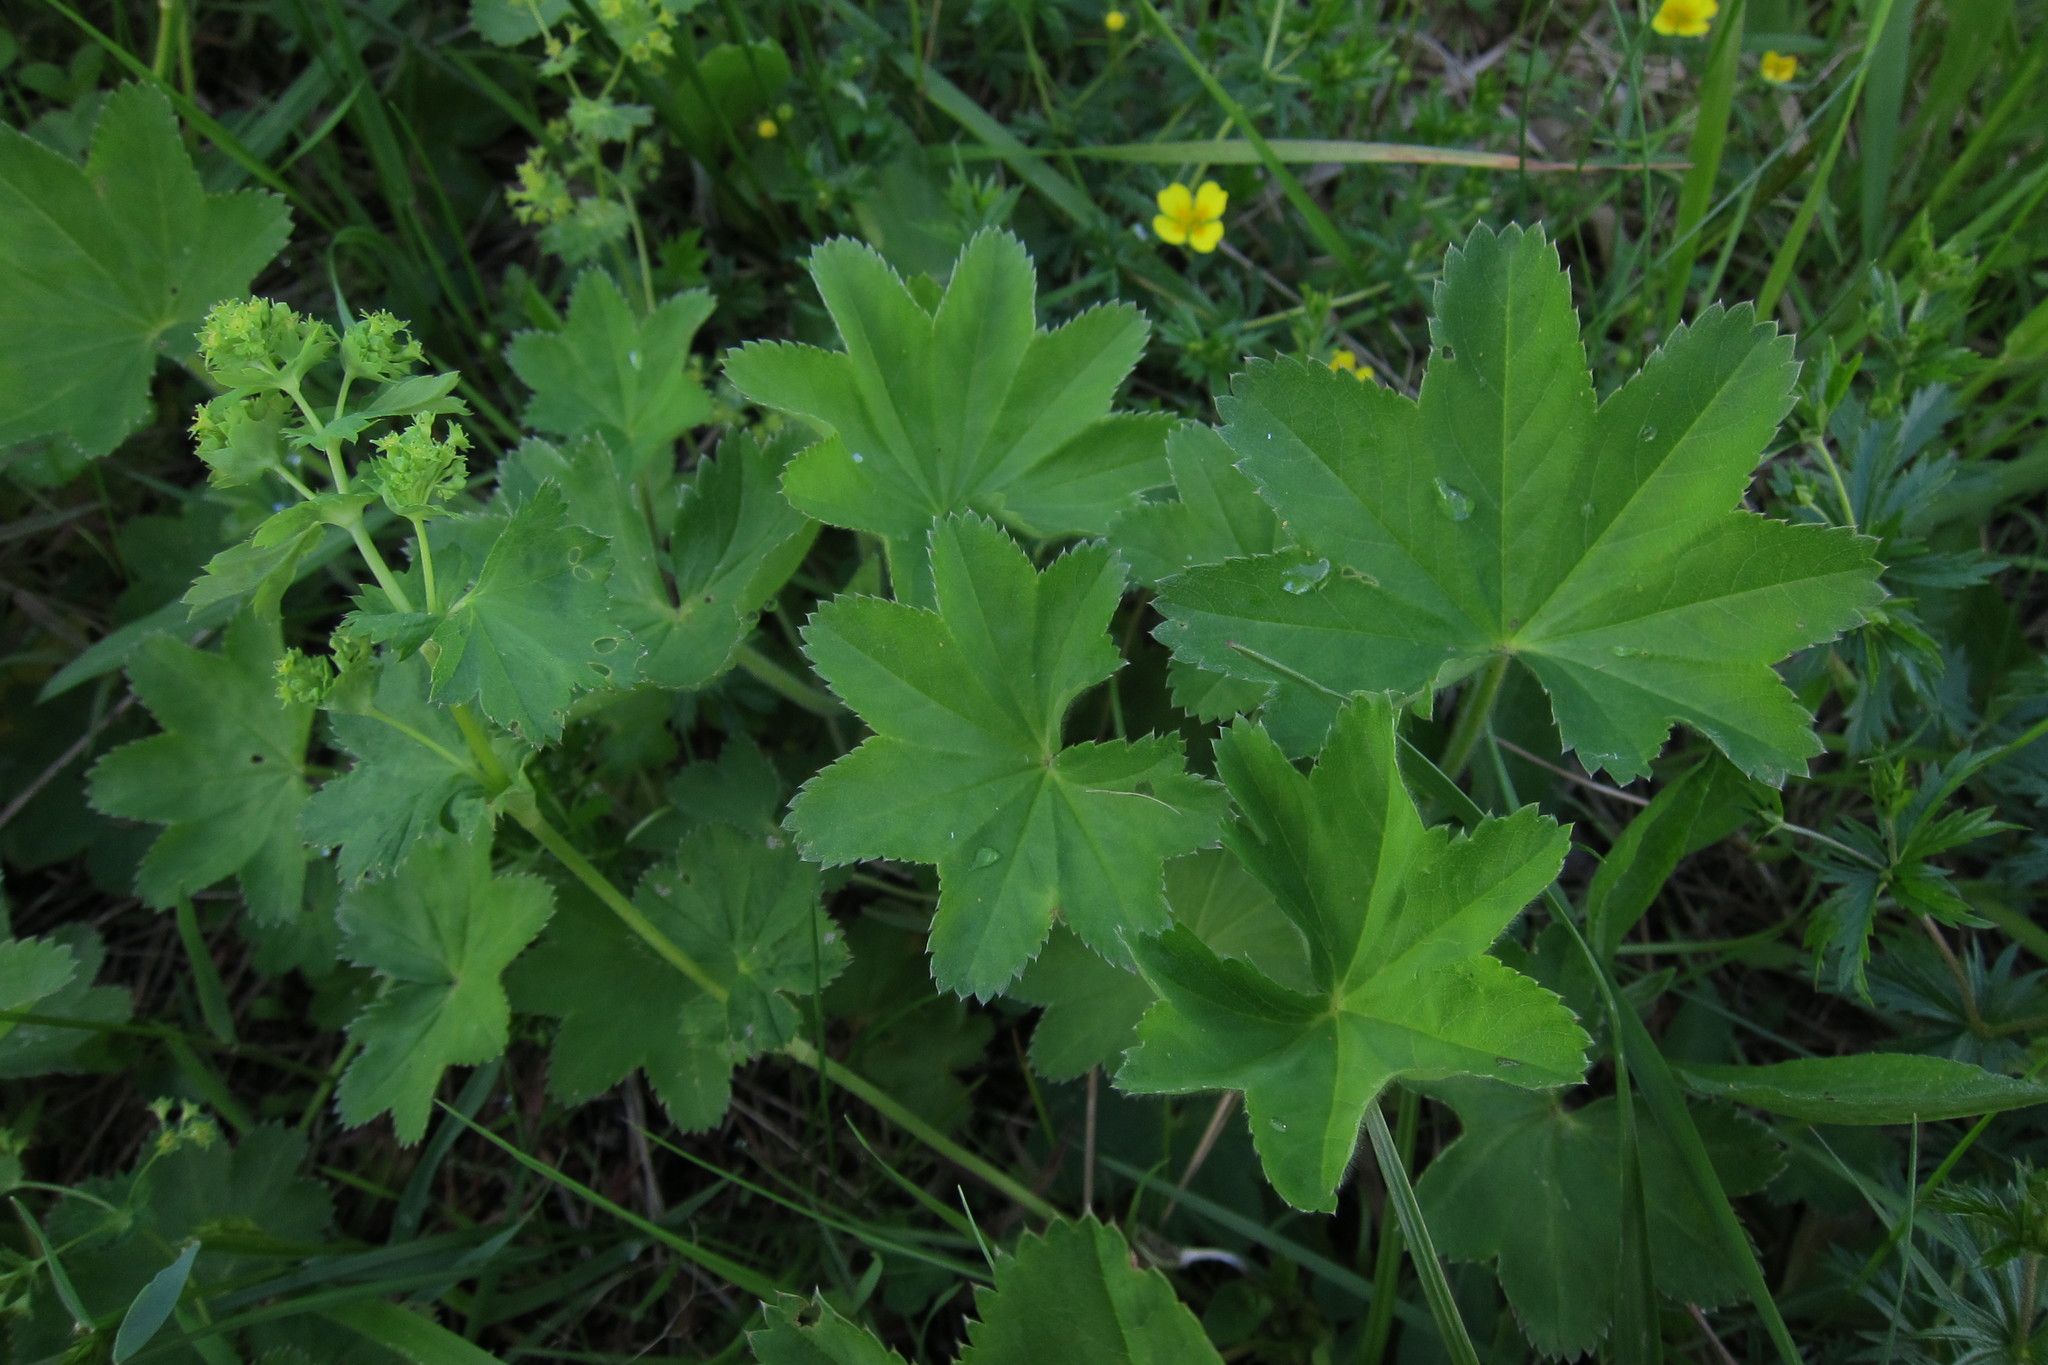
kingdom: Plantae
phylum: Tracheophyta
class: Magnoliopsida
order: Rosales
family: Rosaceae
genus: Alchemilla
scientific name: Alchemilla
